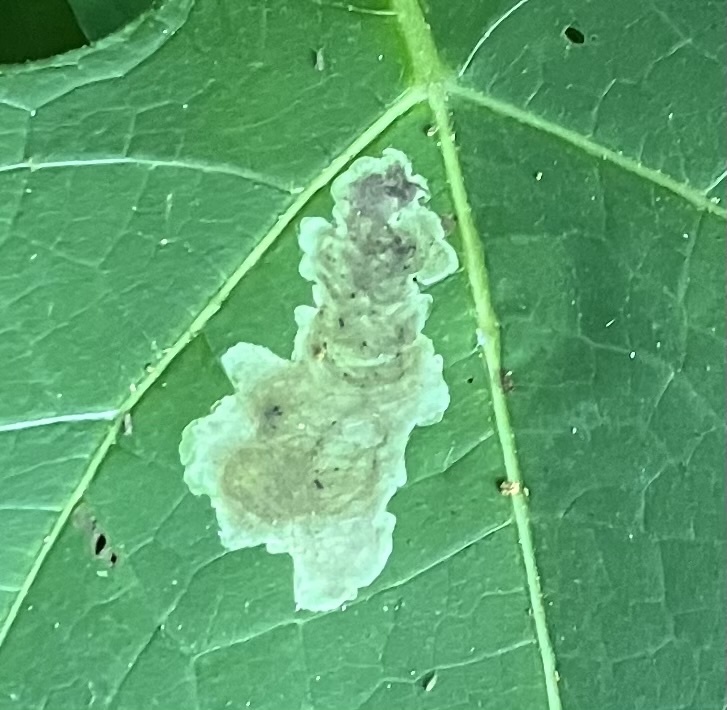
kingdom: Animalia
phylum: Arthropoda
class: Insecta
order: Diptera
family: Agromyzidae
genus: Calycomyza
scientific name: Calycomyza smallanthi
